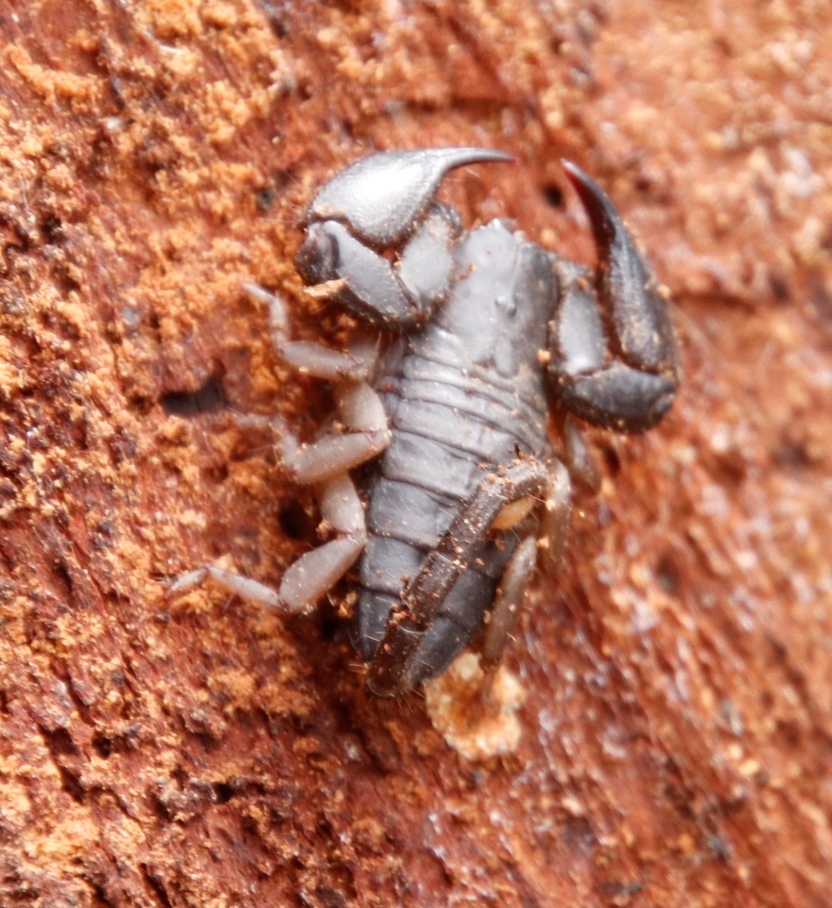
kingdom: Animalia
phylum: Arthropoda
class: Arachnida
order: Scorpiones
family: Hormuridae
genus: Opisthacanthus
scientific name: Opisthacanthus diremptus
